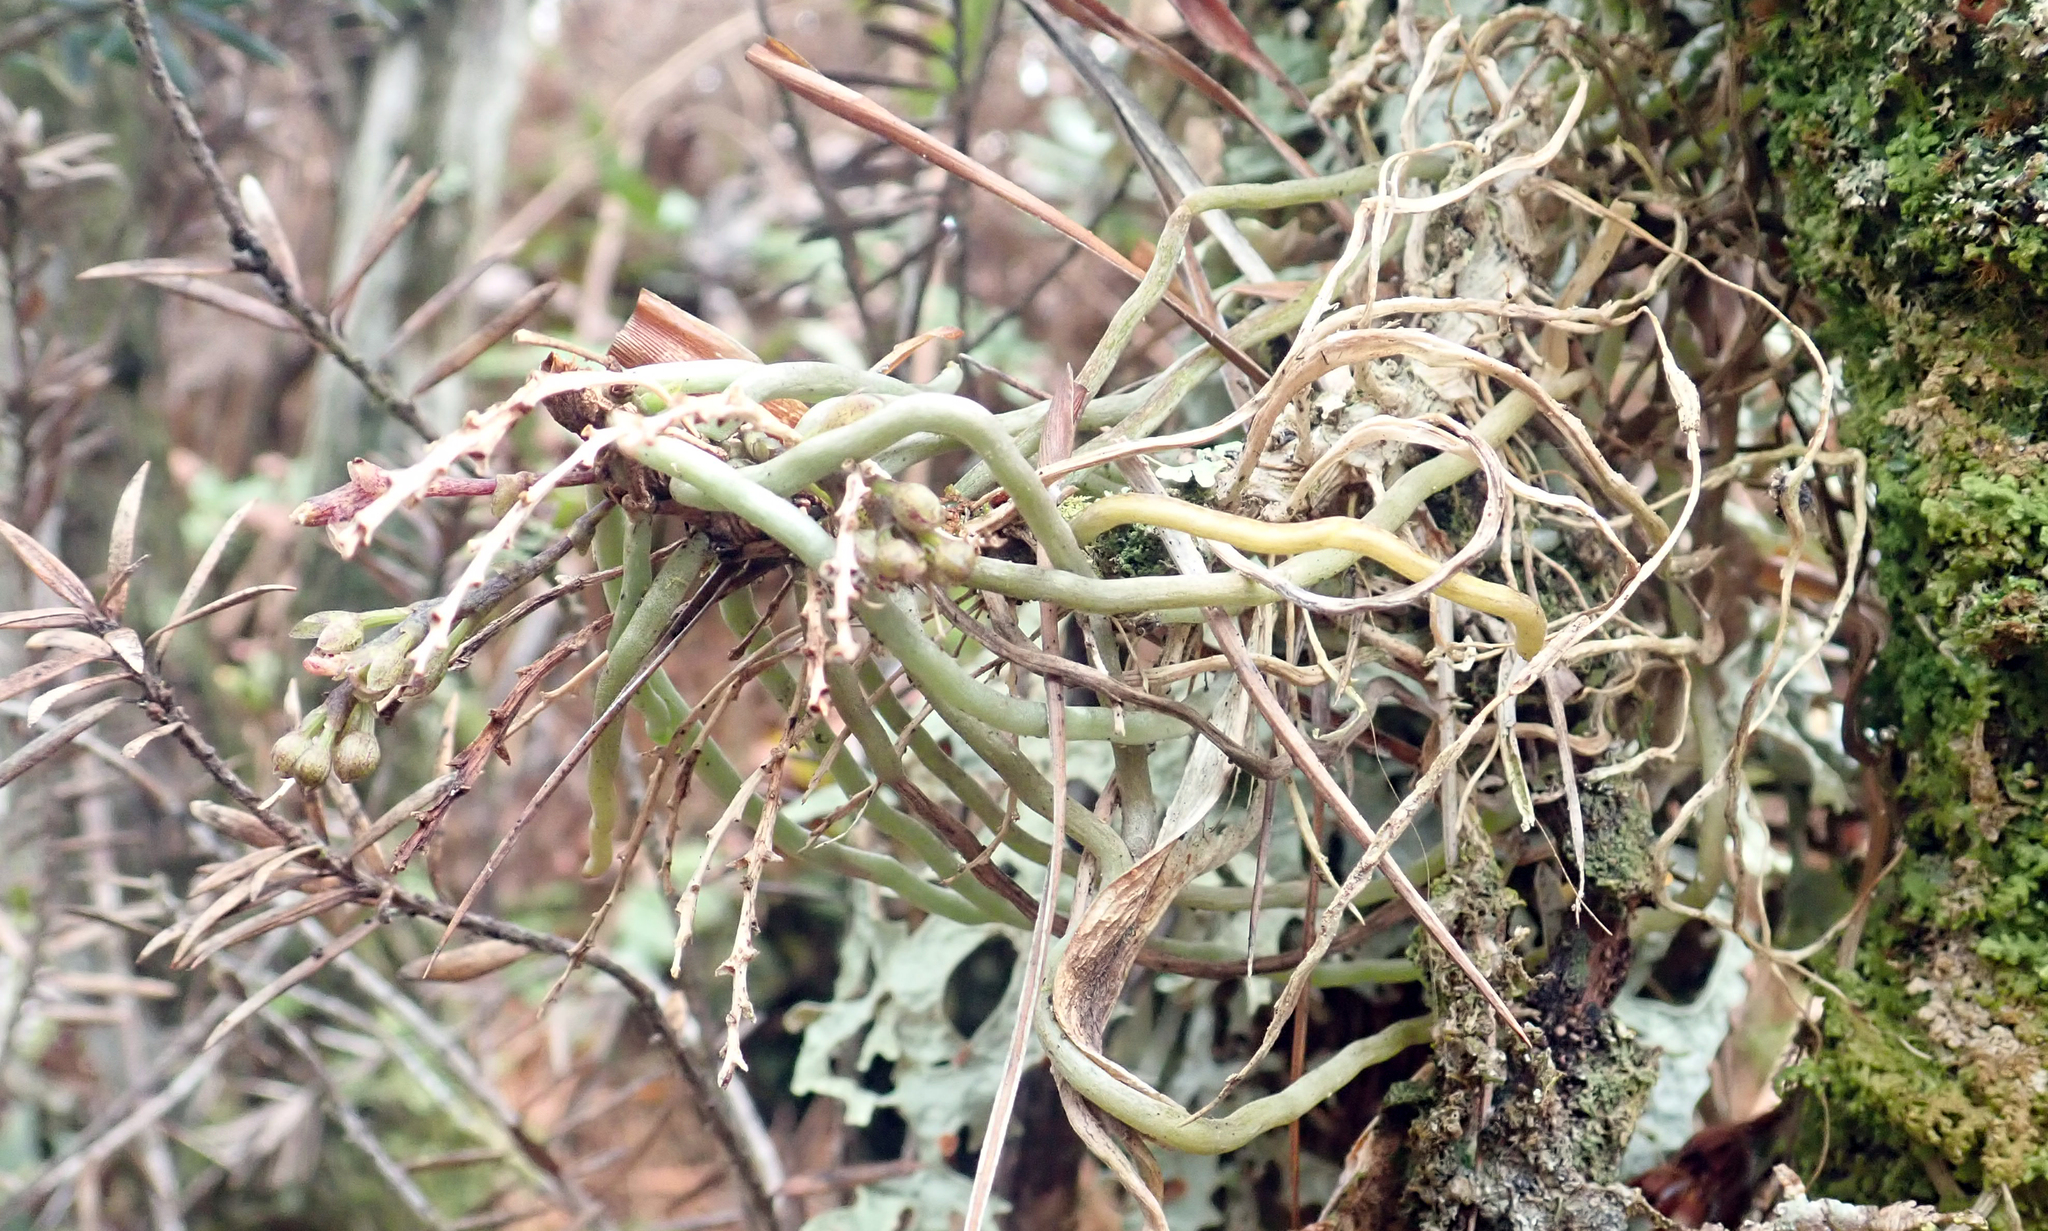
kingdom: Plantae
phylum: Tracheophyta
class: Liliopsida
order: Asparagales
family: Orchidaceae
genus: Drymoanthus
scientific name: Drymoanthus adversus
